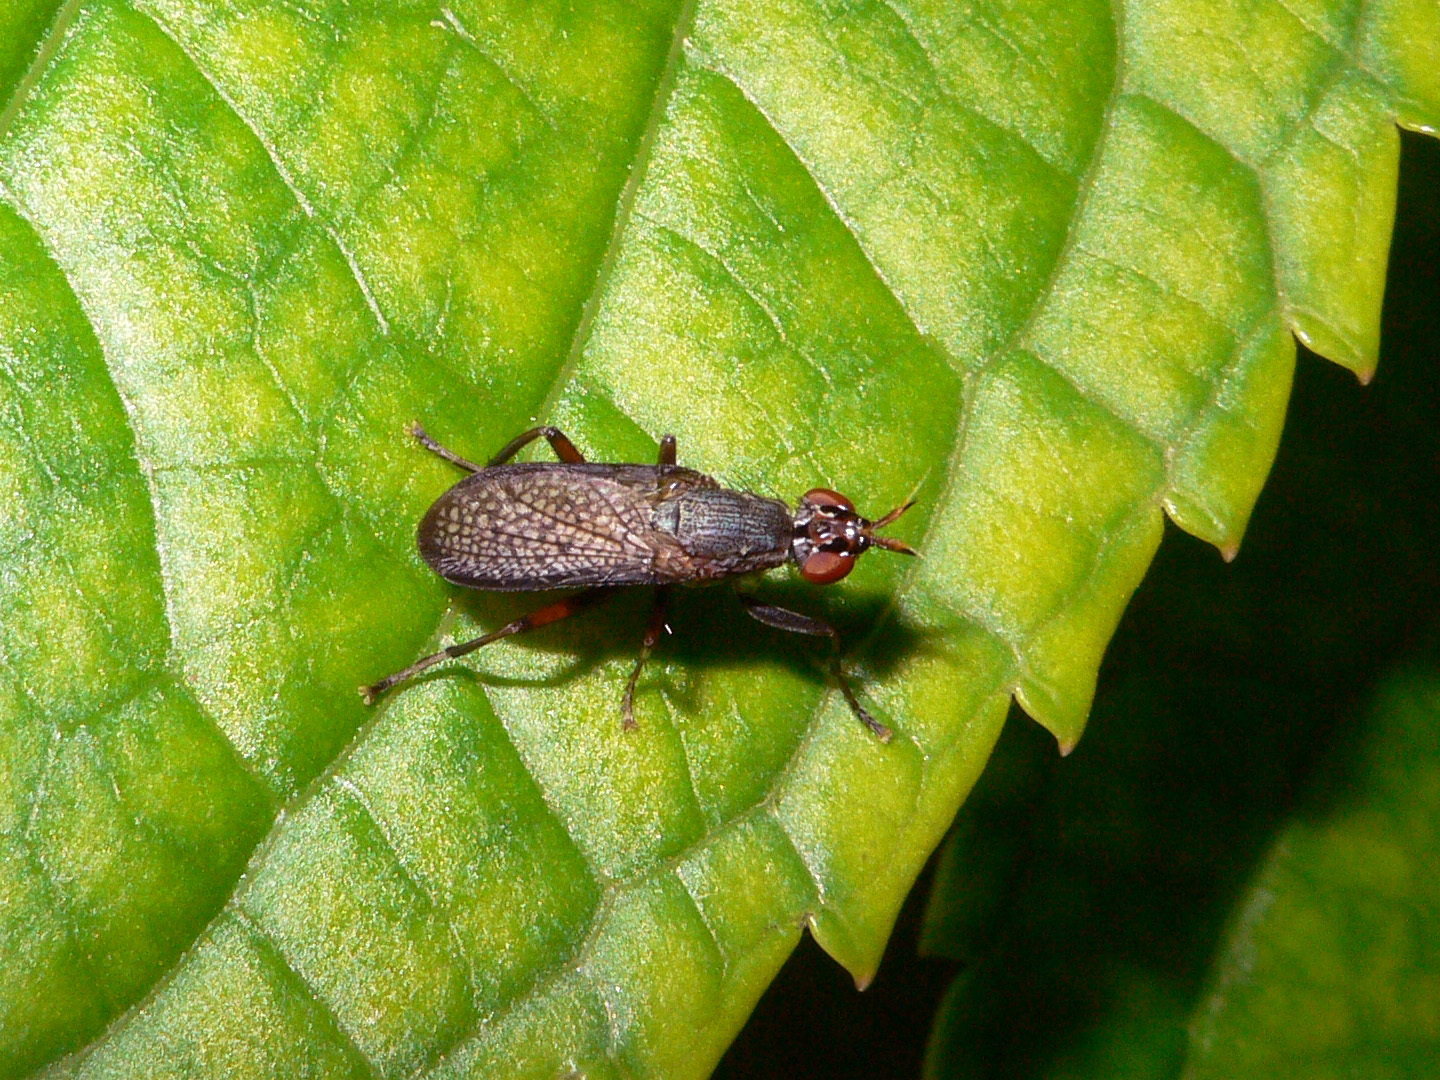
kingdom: Animalia
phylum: Arthropoda
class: Insecta
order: Diptera
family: Sciomyzidae
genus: Coremacera
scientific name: Coremacera marginata
